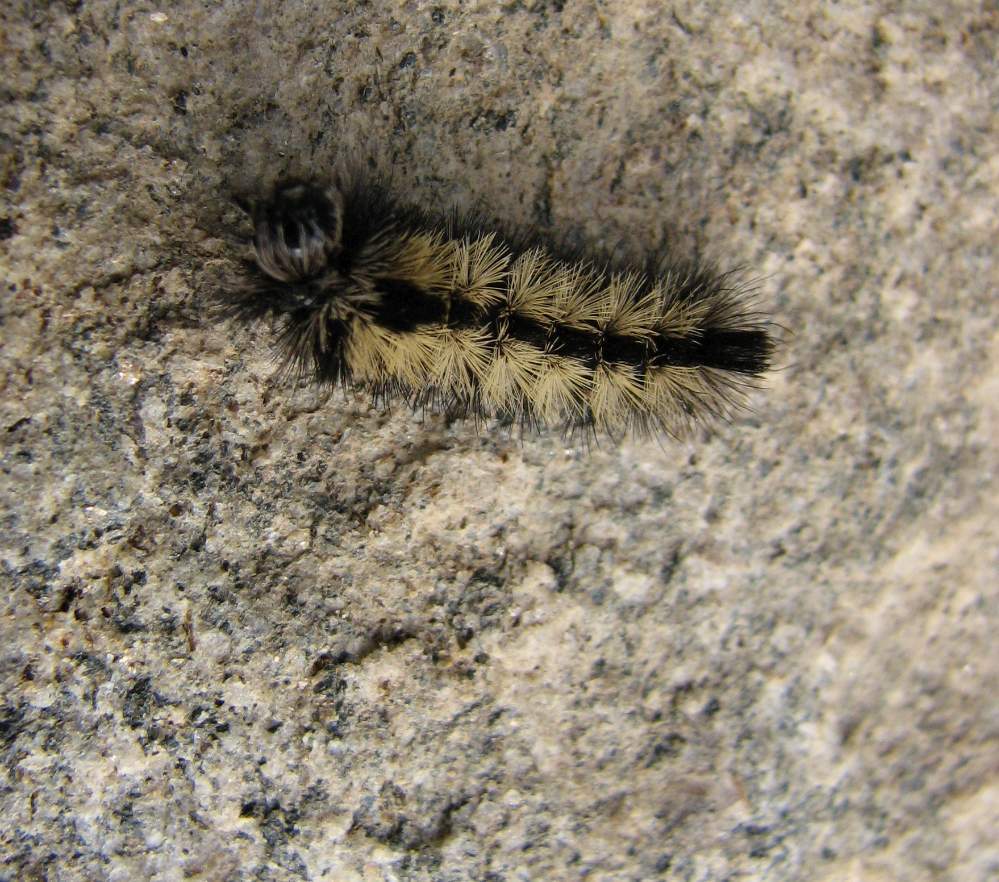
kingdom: Animalia
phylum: Arthropoda
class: Insecta
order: Lepidoptera
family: Erebidae
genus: Ctenucha
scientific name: Ctenucha virginica
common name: Virginia ctenucha moth
